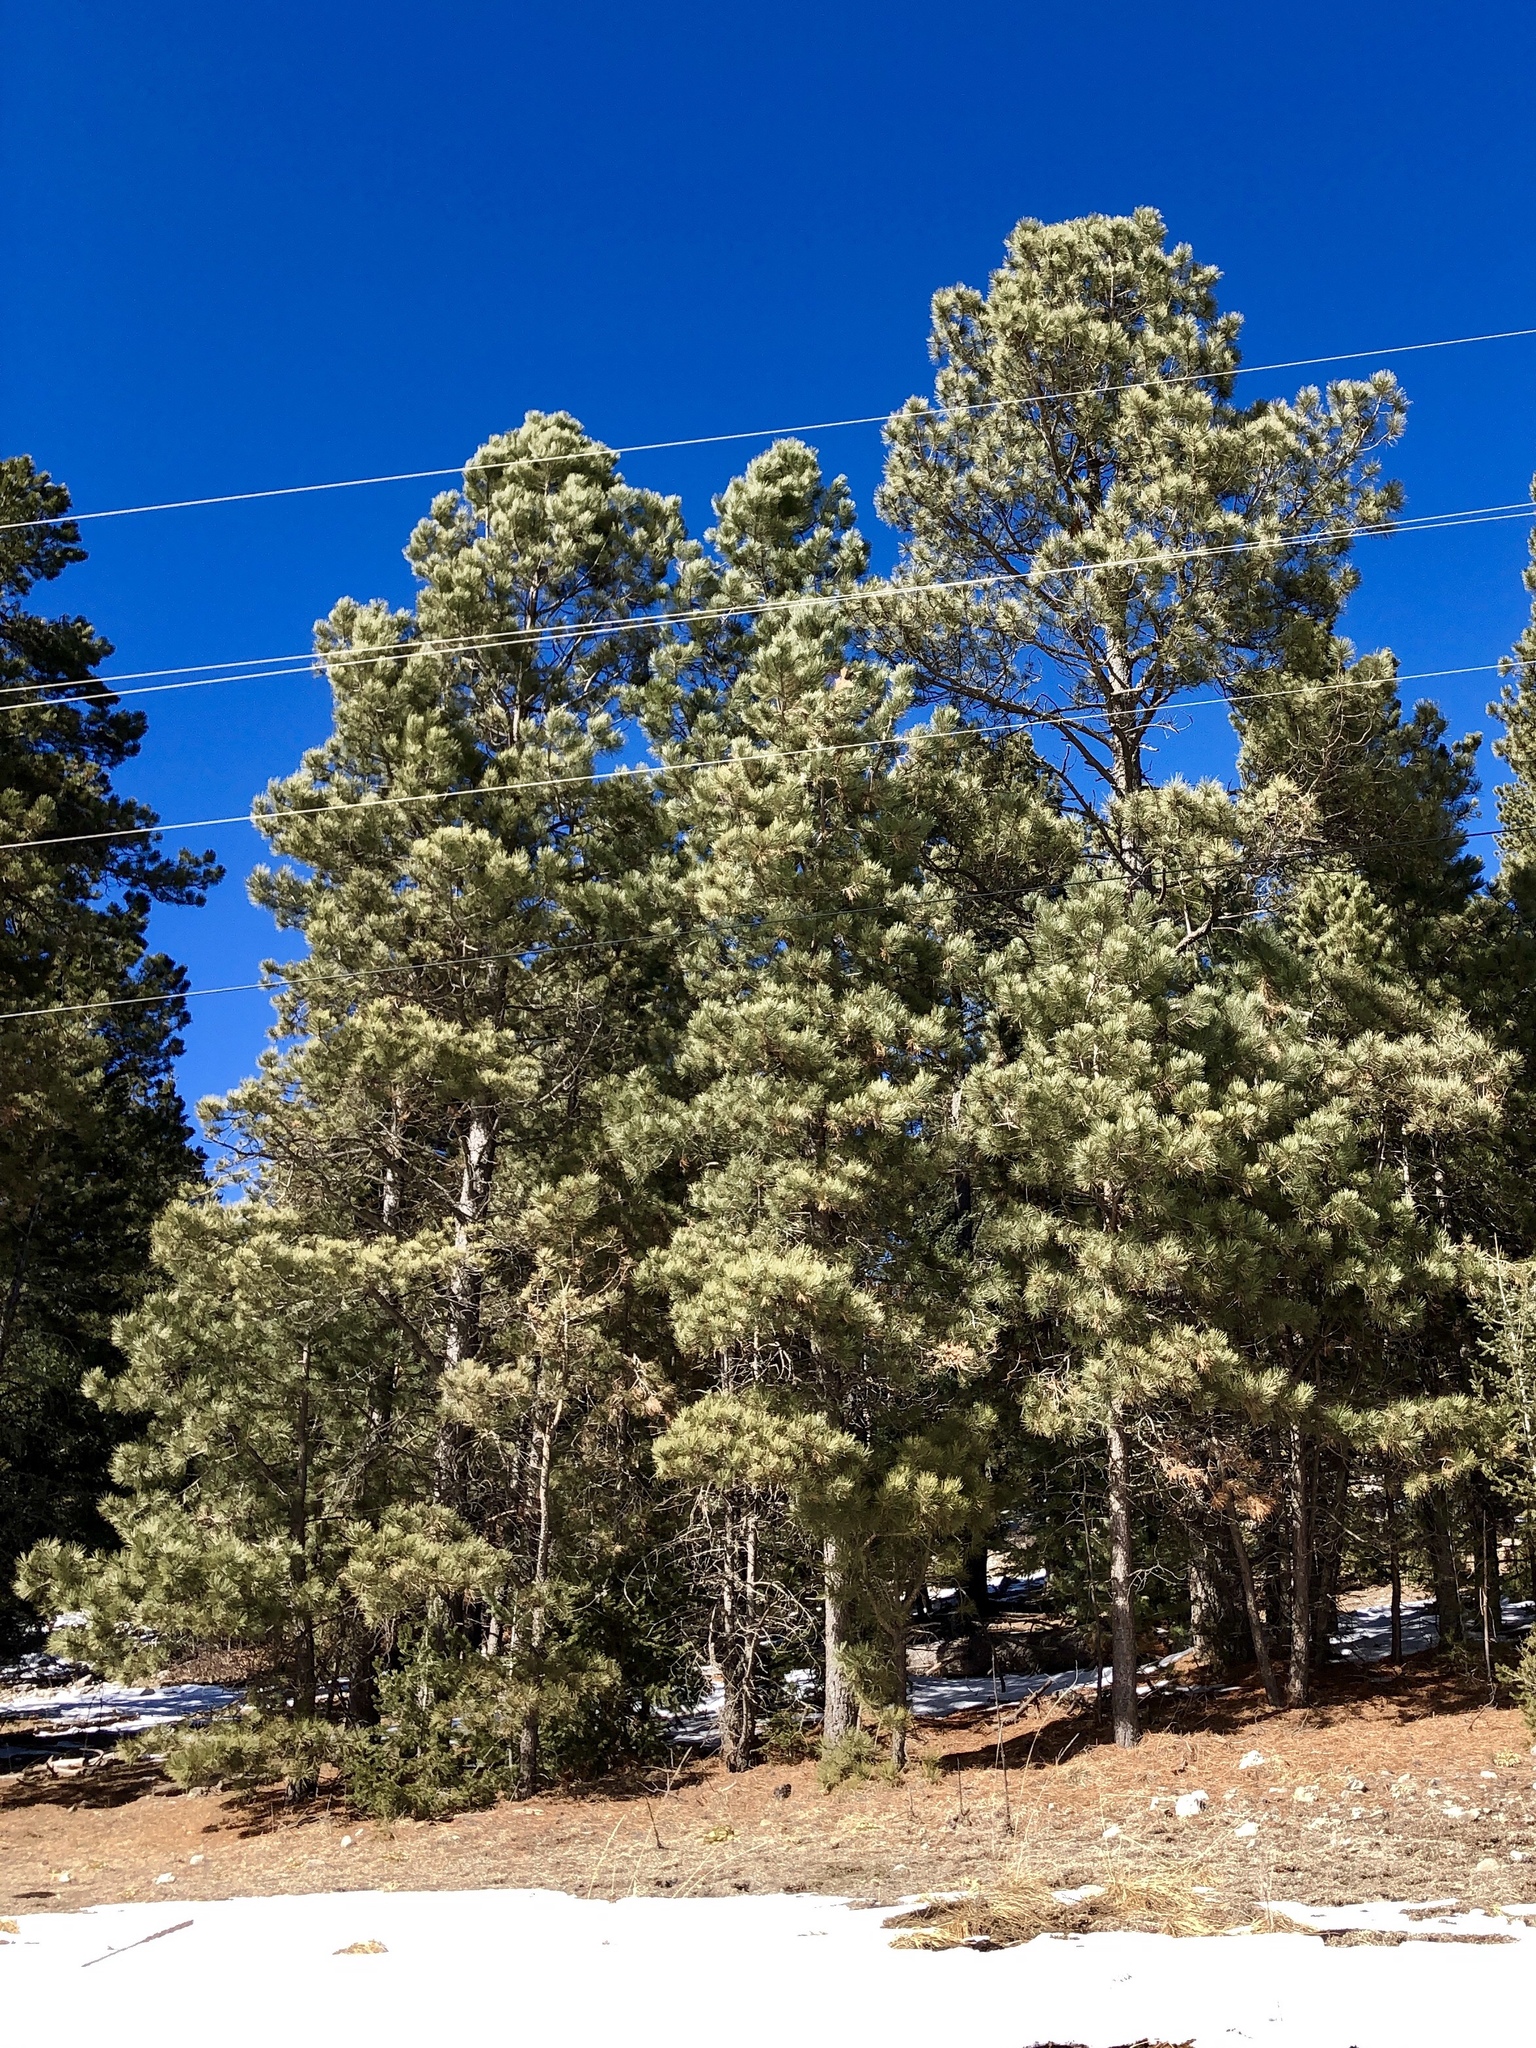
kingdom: Plantae
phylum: Tracheophyta
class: Pinopsida
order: Pinales
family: Pinaceae
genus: Pinus
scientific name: Pinus ponderosa
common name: Western yellow-pine
